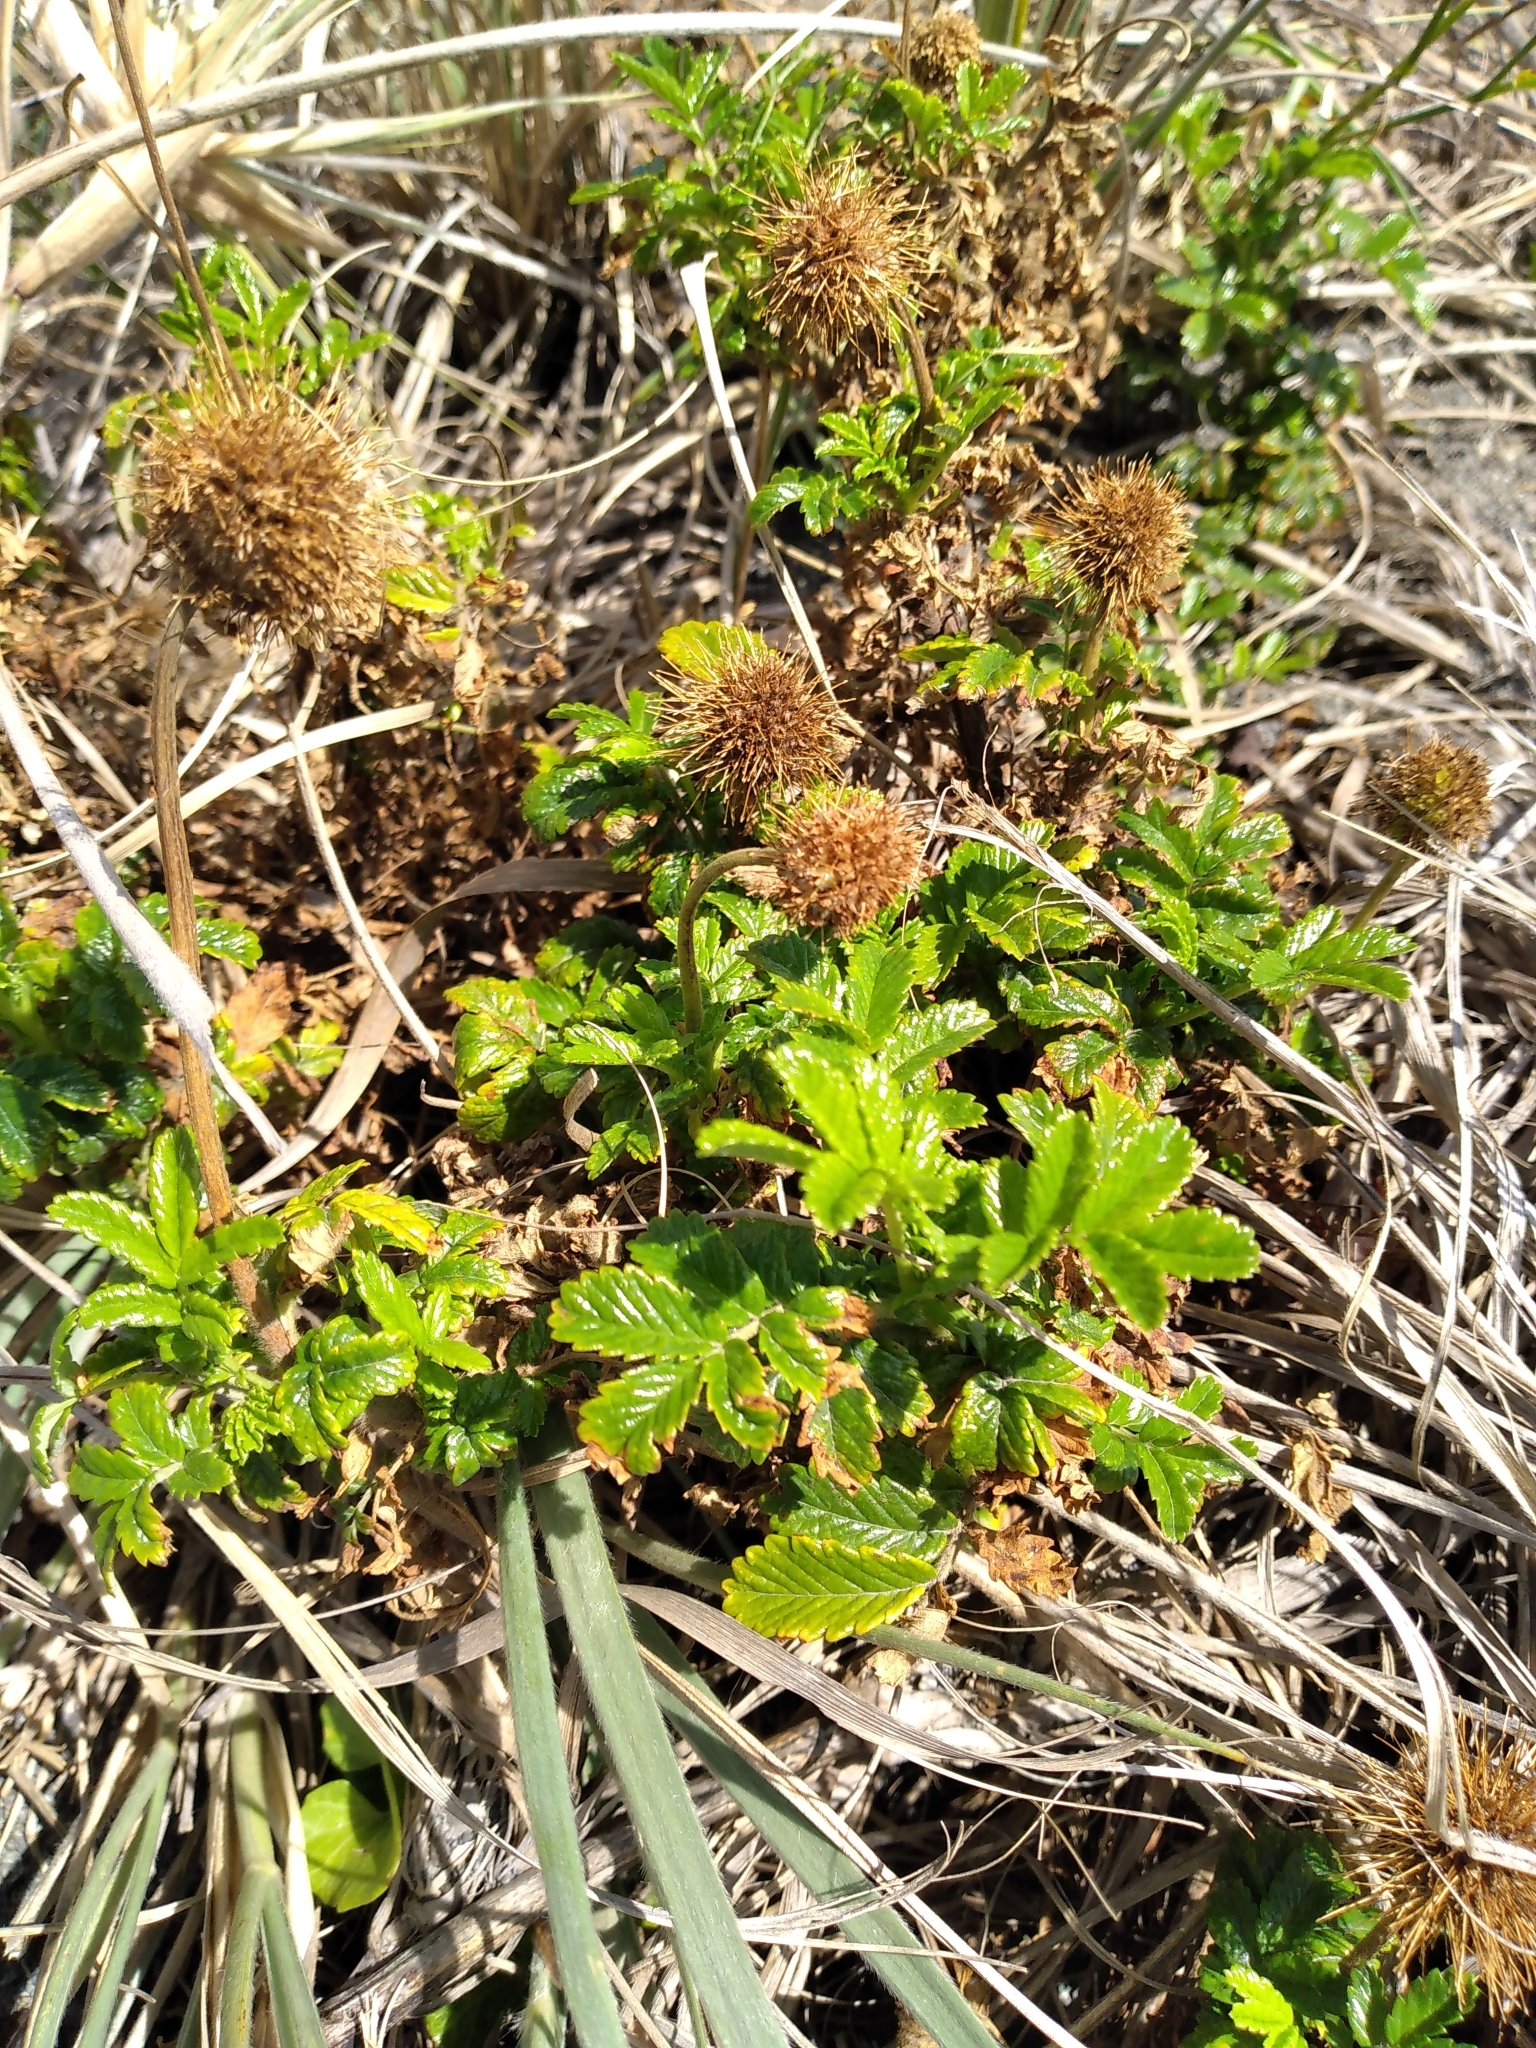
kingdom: Plantae
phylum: Tracheophyta
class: Magnoliopsida
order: Rosales
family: Rosaceae
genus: Acaena
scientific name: Acaena pallida
